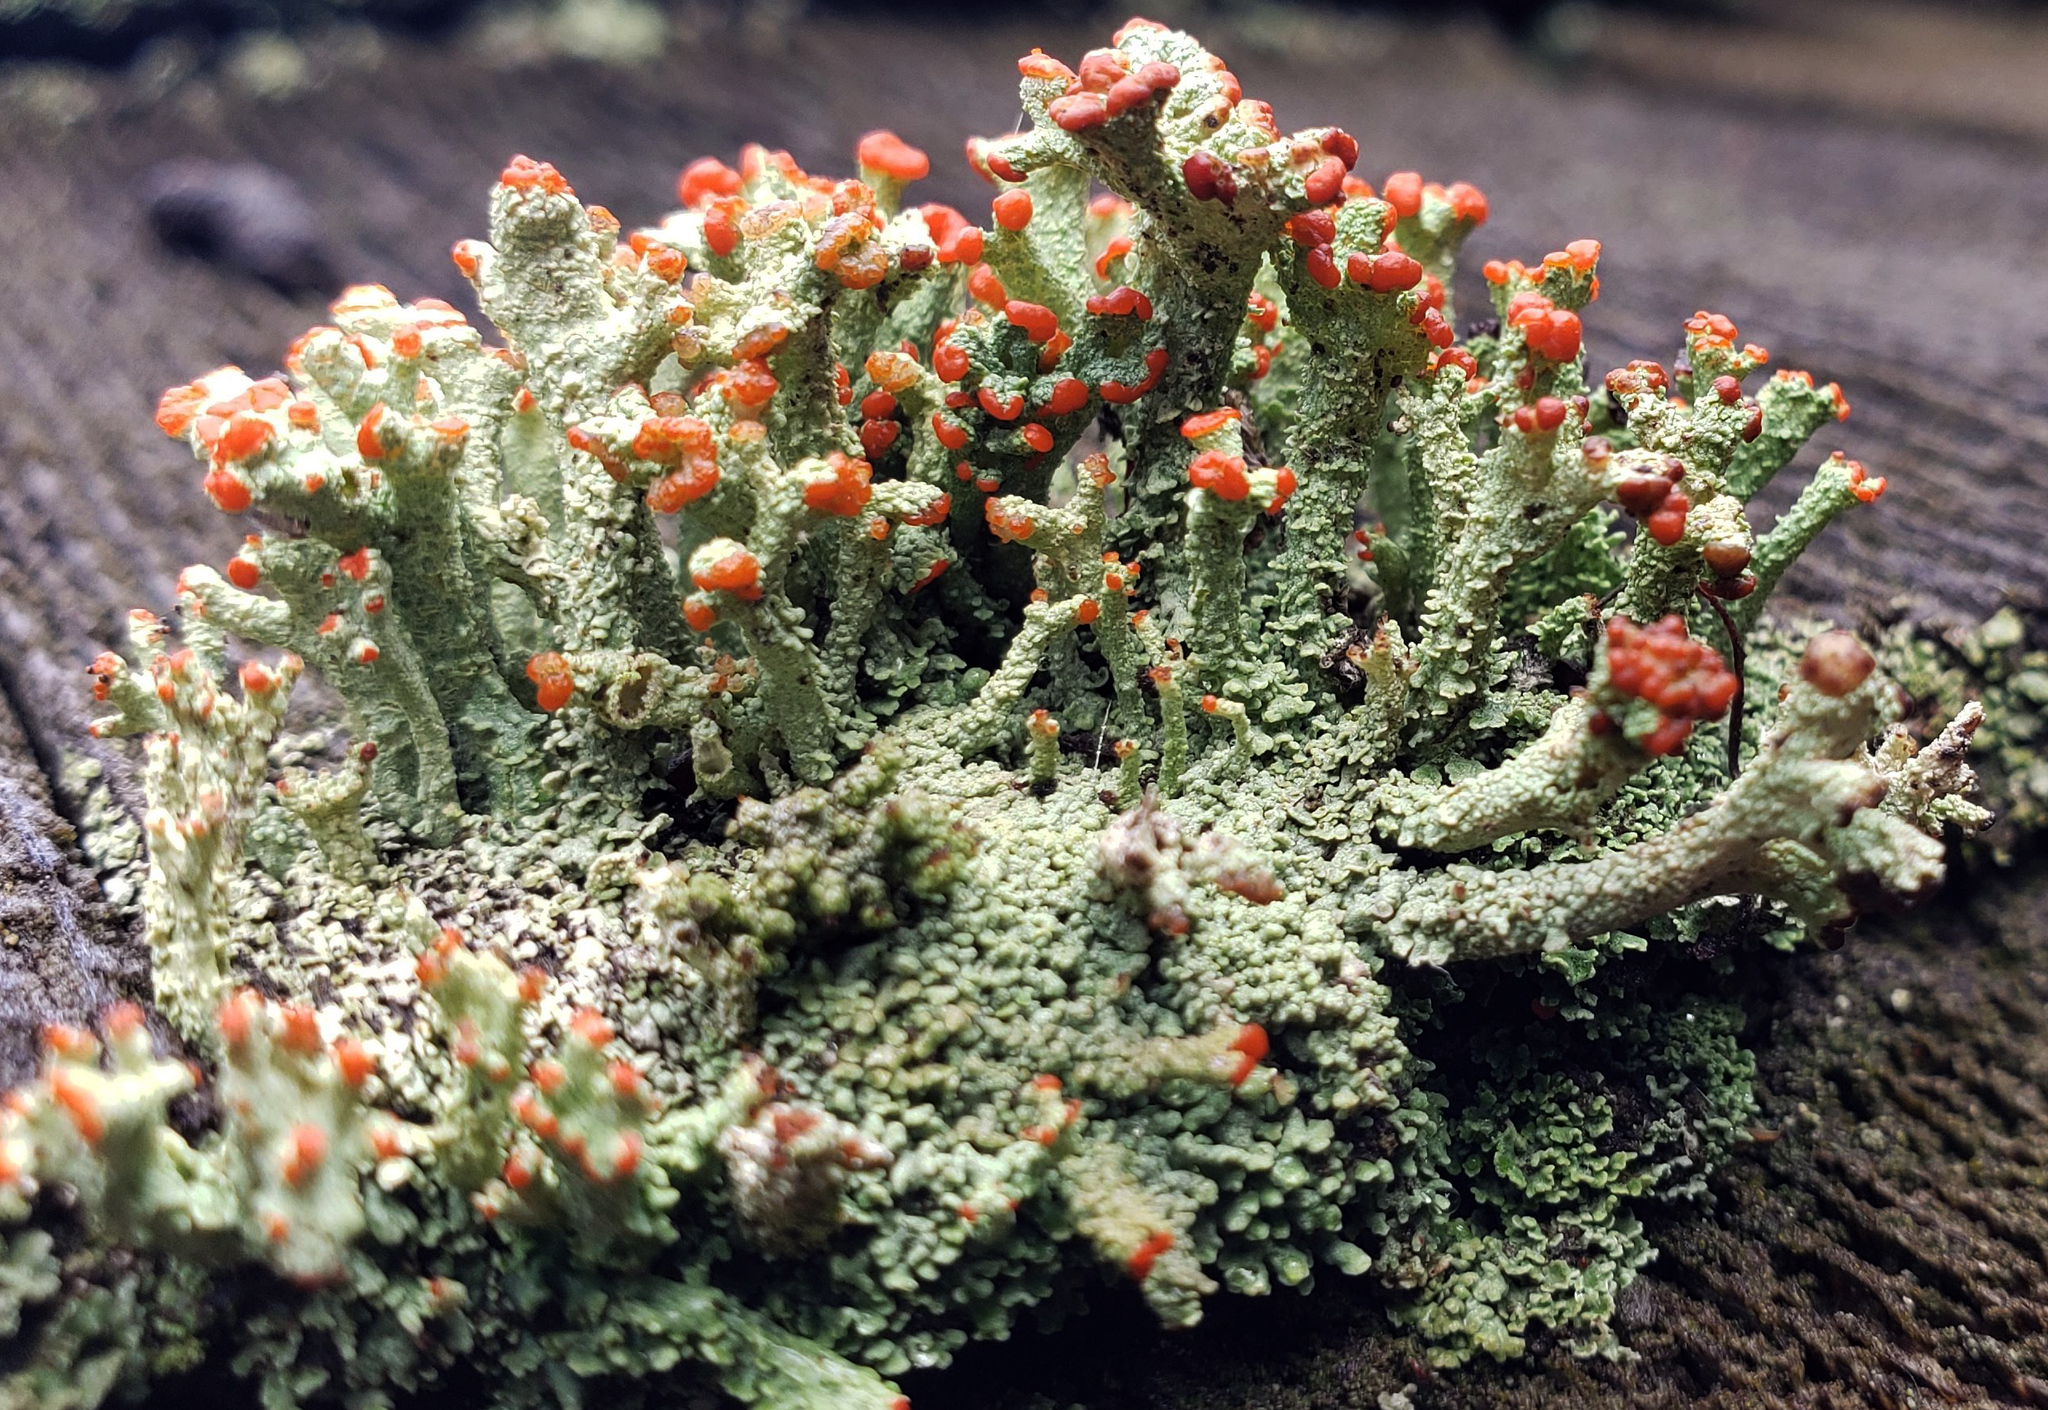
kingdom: Fungi
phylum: Ascomycota
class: Lecanoromycetes
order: Lecanorales
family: Cladoniaceae
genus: Cladonia
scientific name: Cladonia cristatella
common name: British soldier lichen
